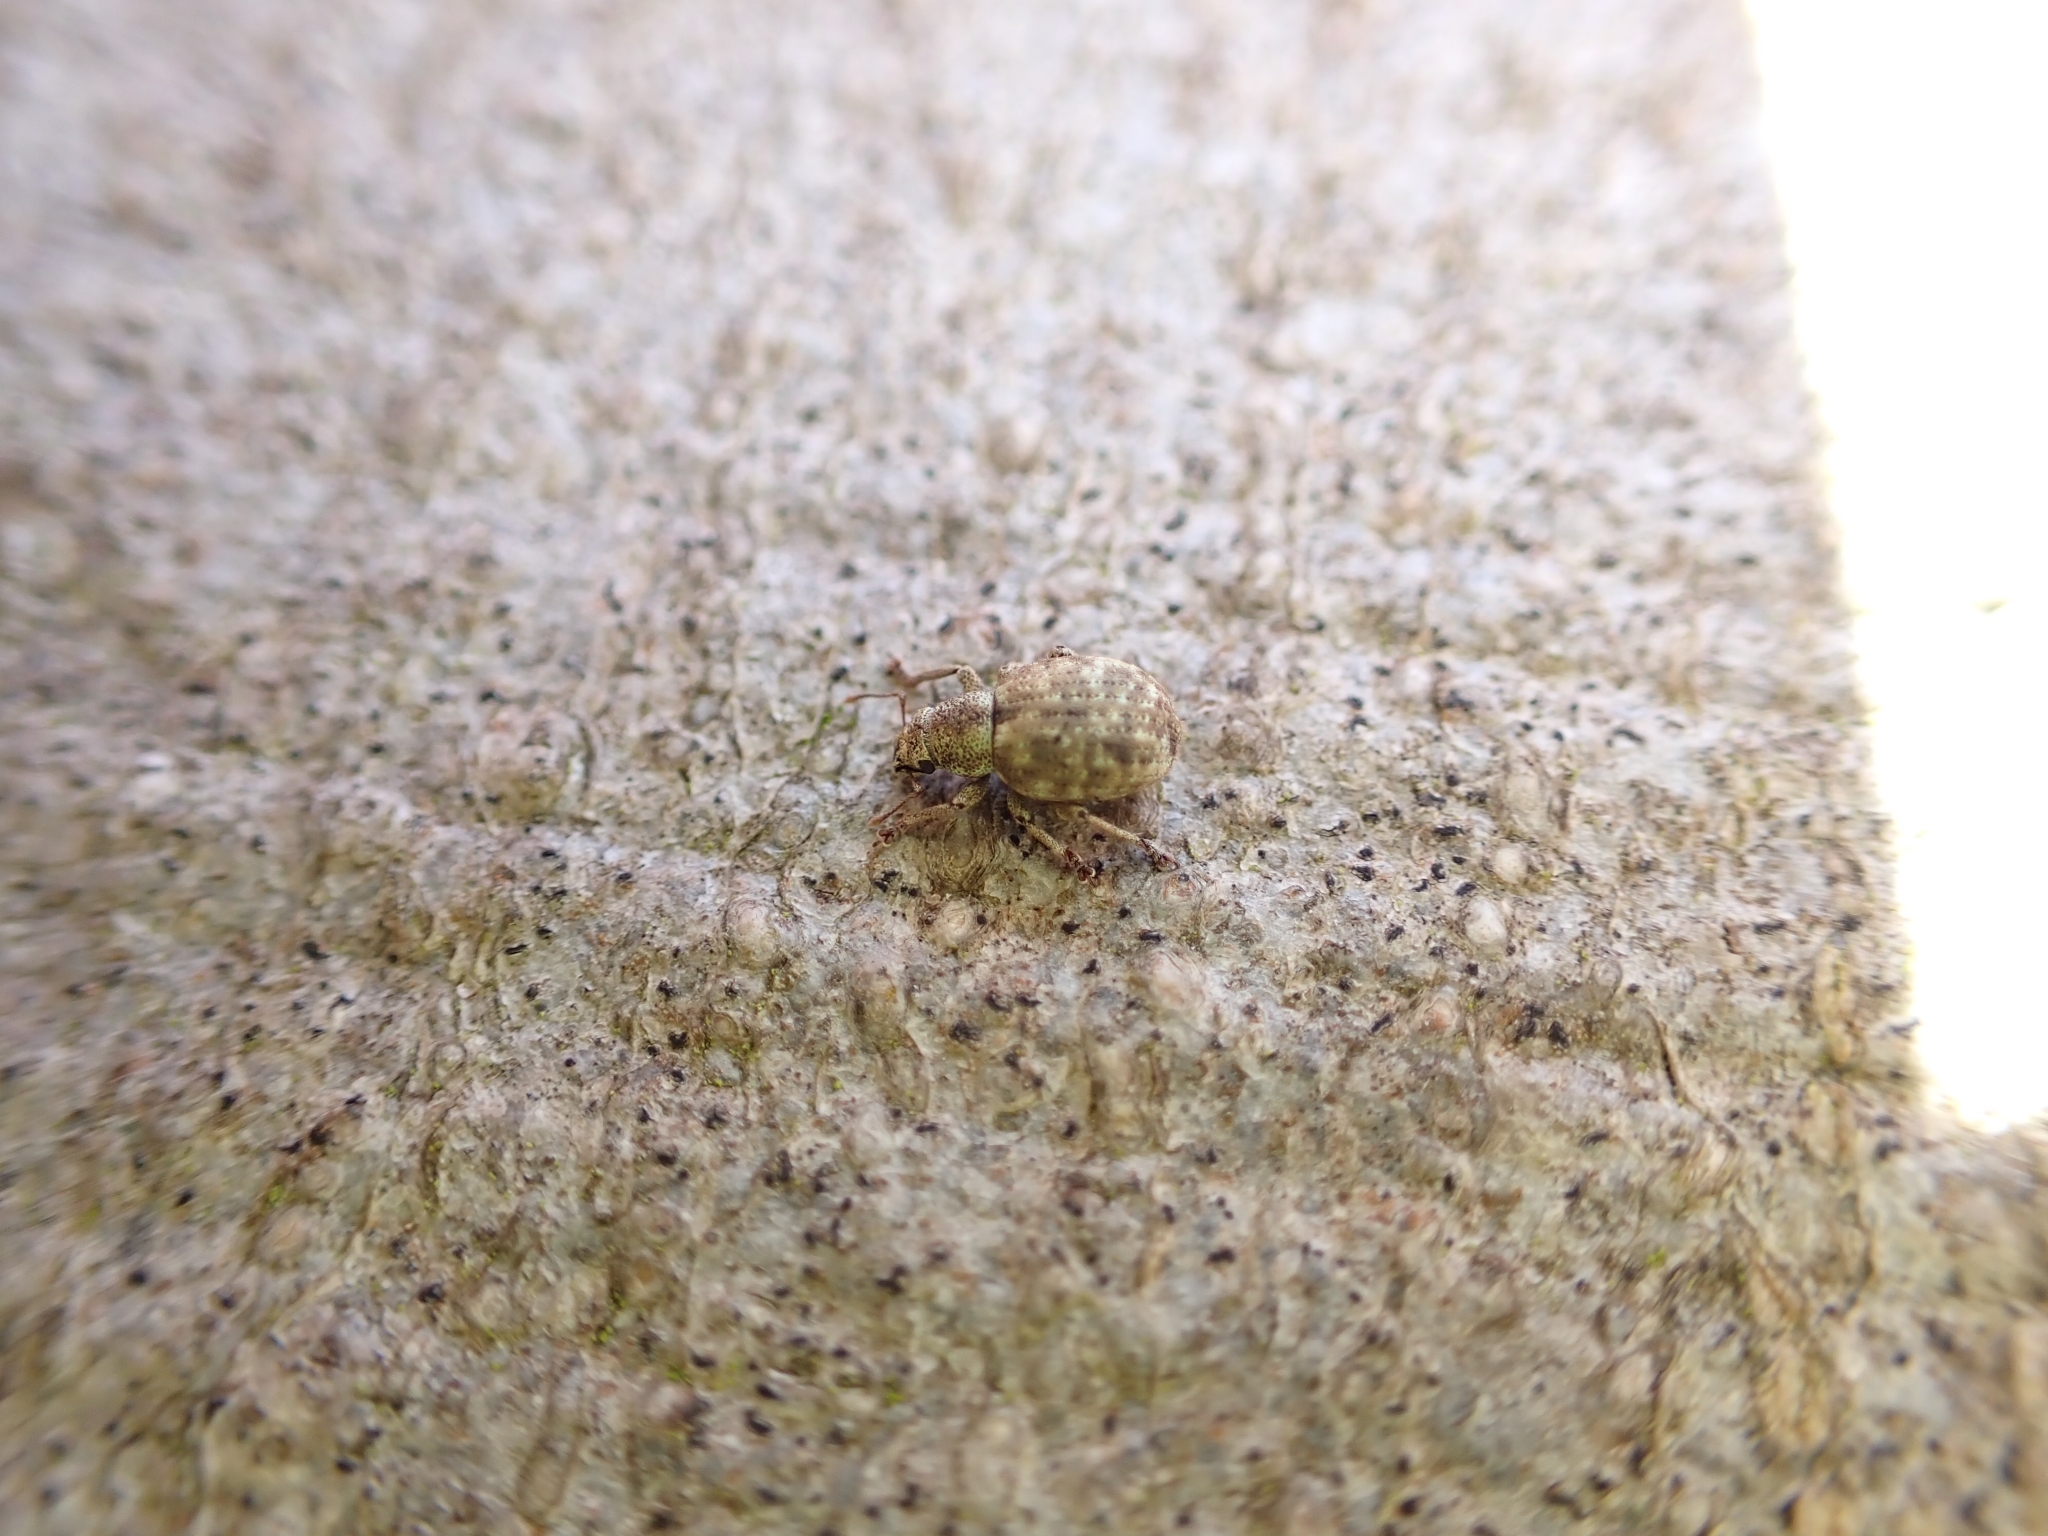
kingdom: Animalia
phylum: Arthropoda
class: Insecta
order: Coleoptera
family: Curculionidae
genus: Strophosoma
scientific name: Strophosoma capitatum
